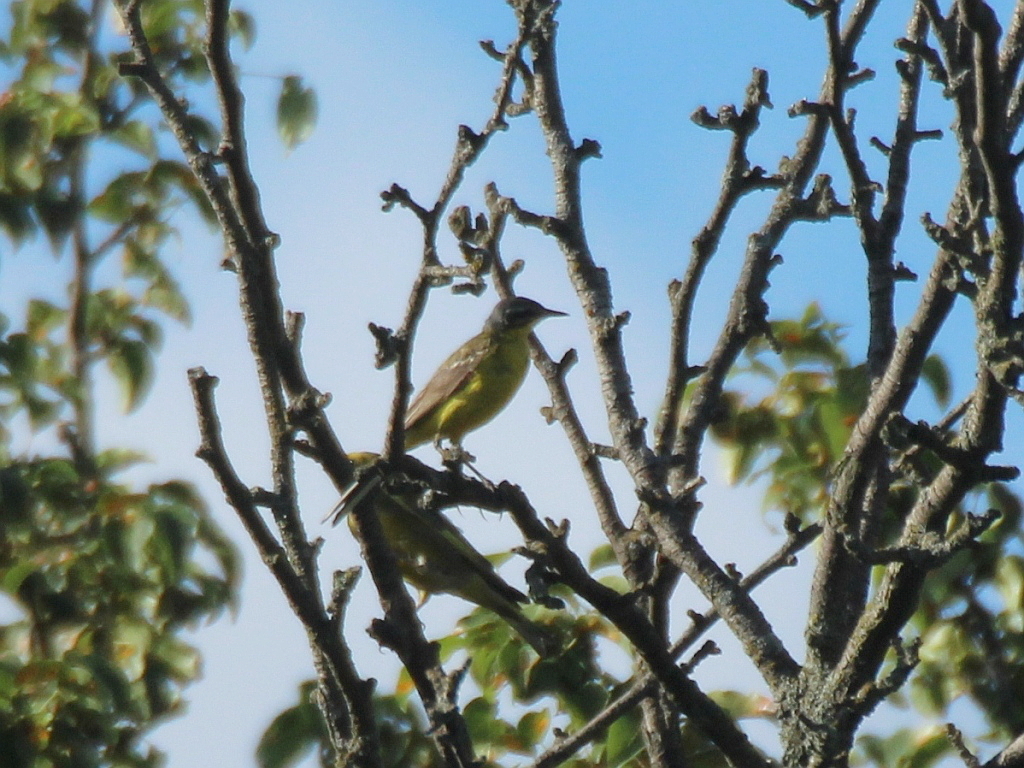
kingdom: Animalia
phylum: Chordata
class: Aves
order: Passeriformes
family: Motacillidae
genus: Motacilla
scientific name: Motacilla flava
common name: Western yellow wagtail
